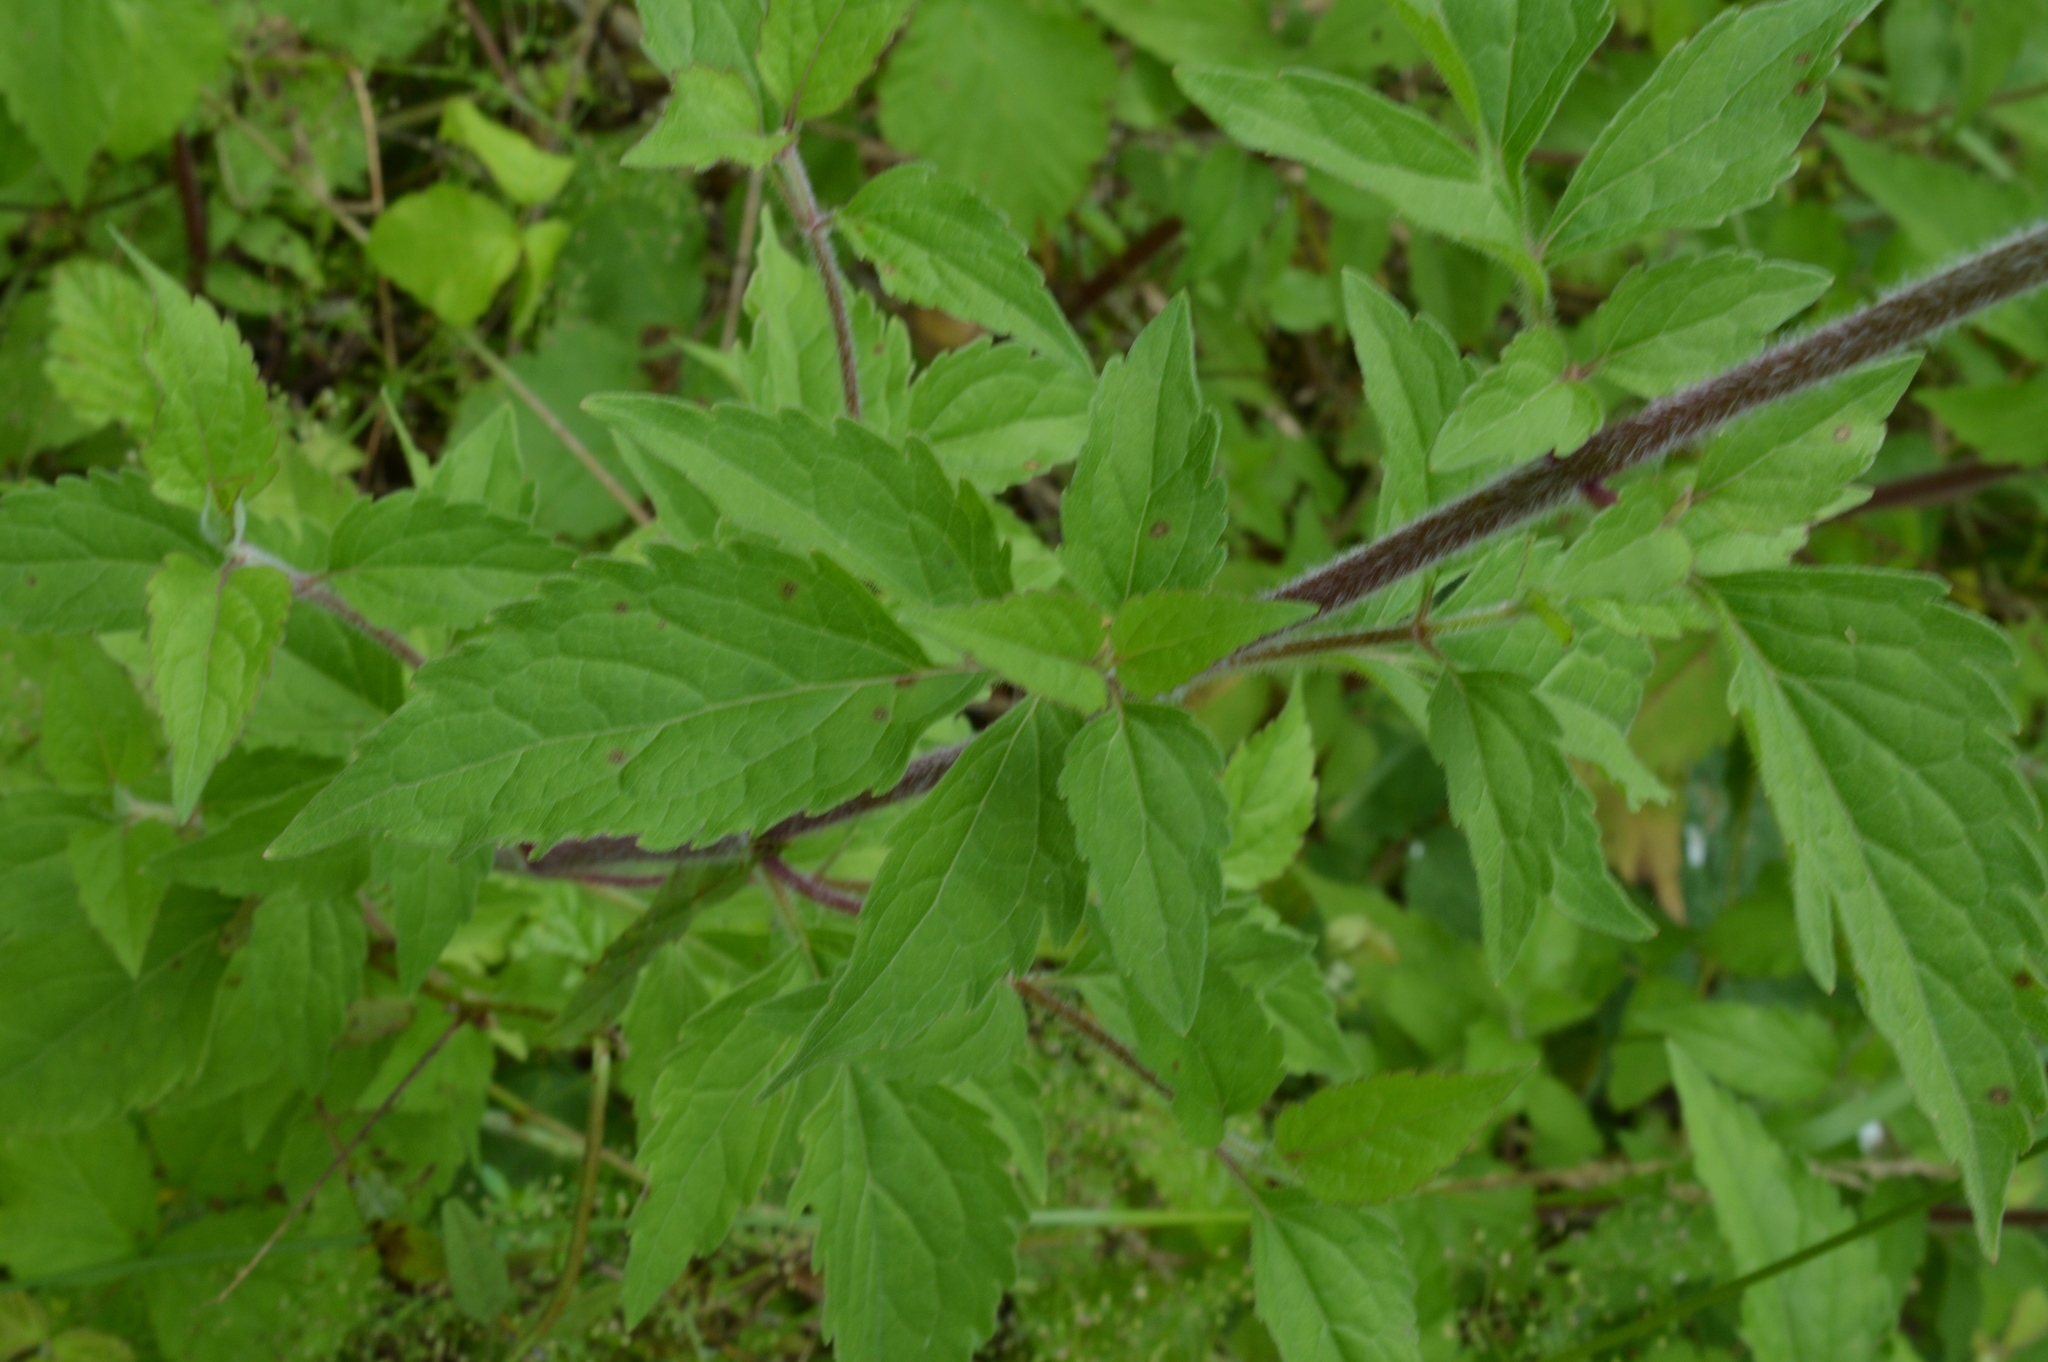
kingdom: Plantae
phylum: Tracheophyta
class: Magnoliopsida
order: Asterales
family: Asteraceae
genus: Eupatorium
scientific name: Eupatorium cannabinum
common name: Hemp-agrimony
